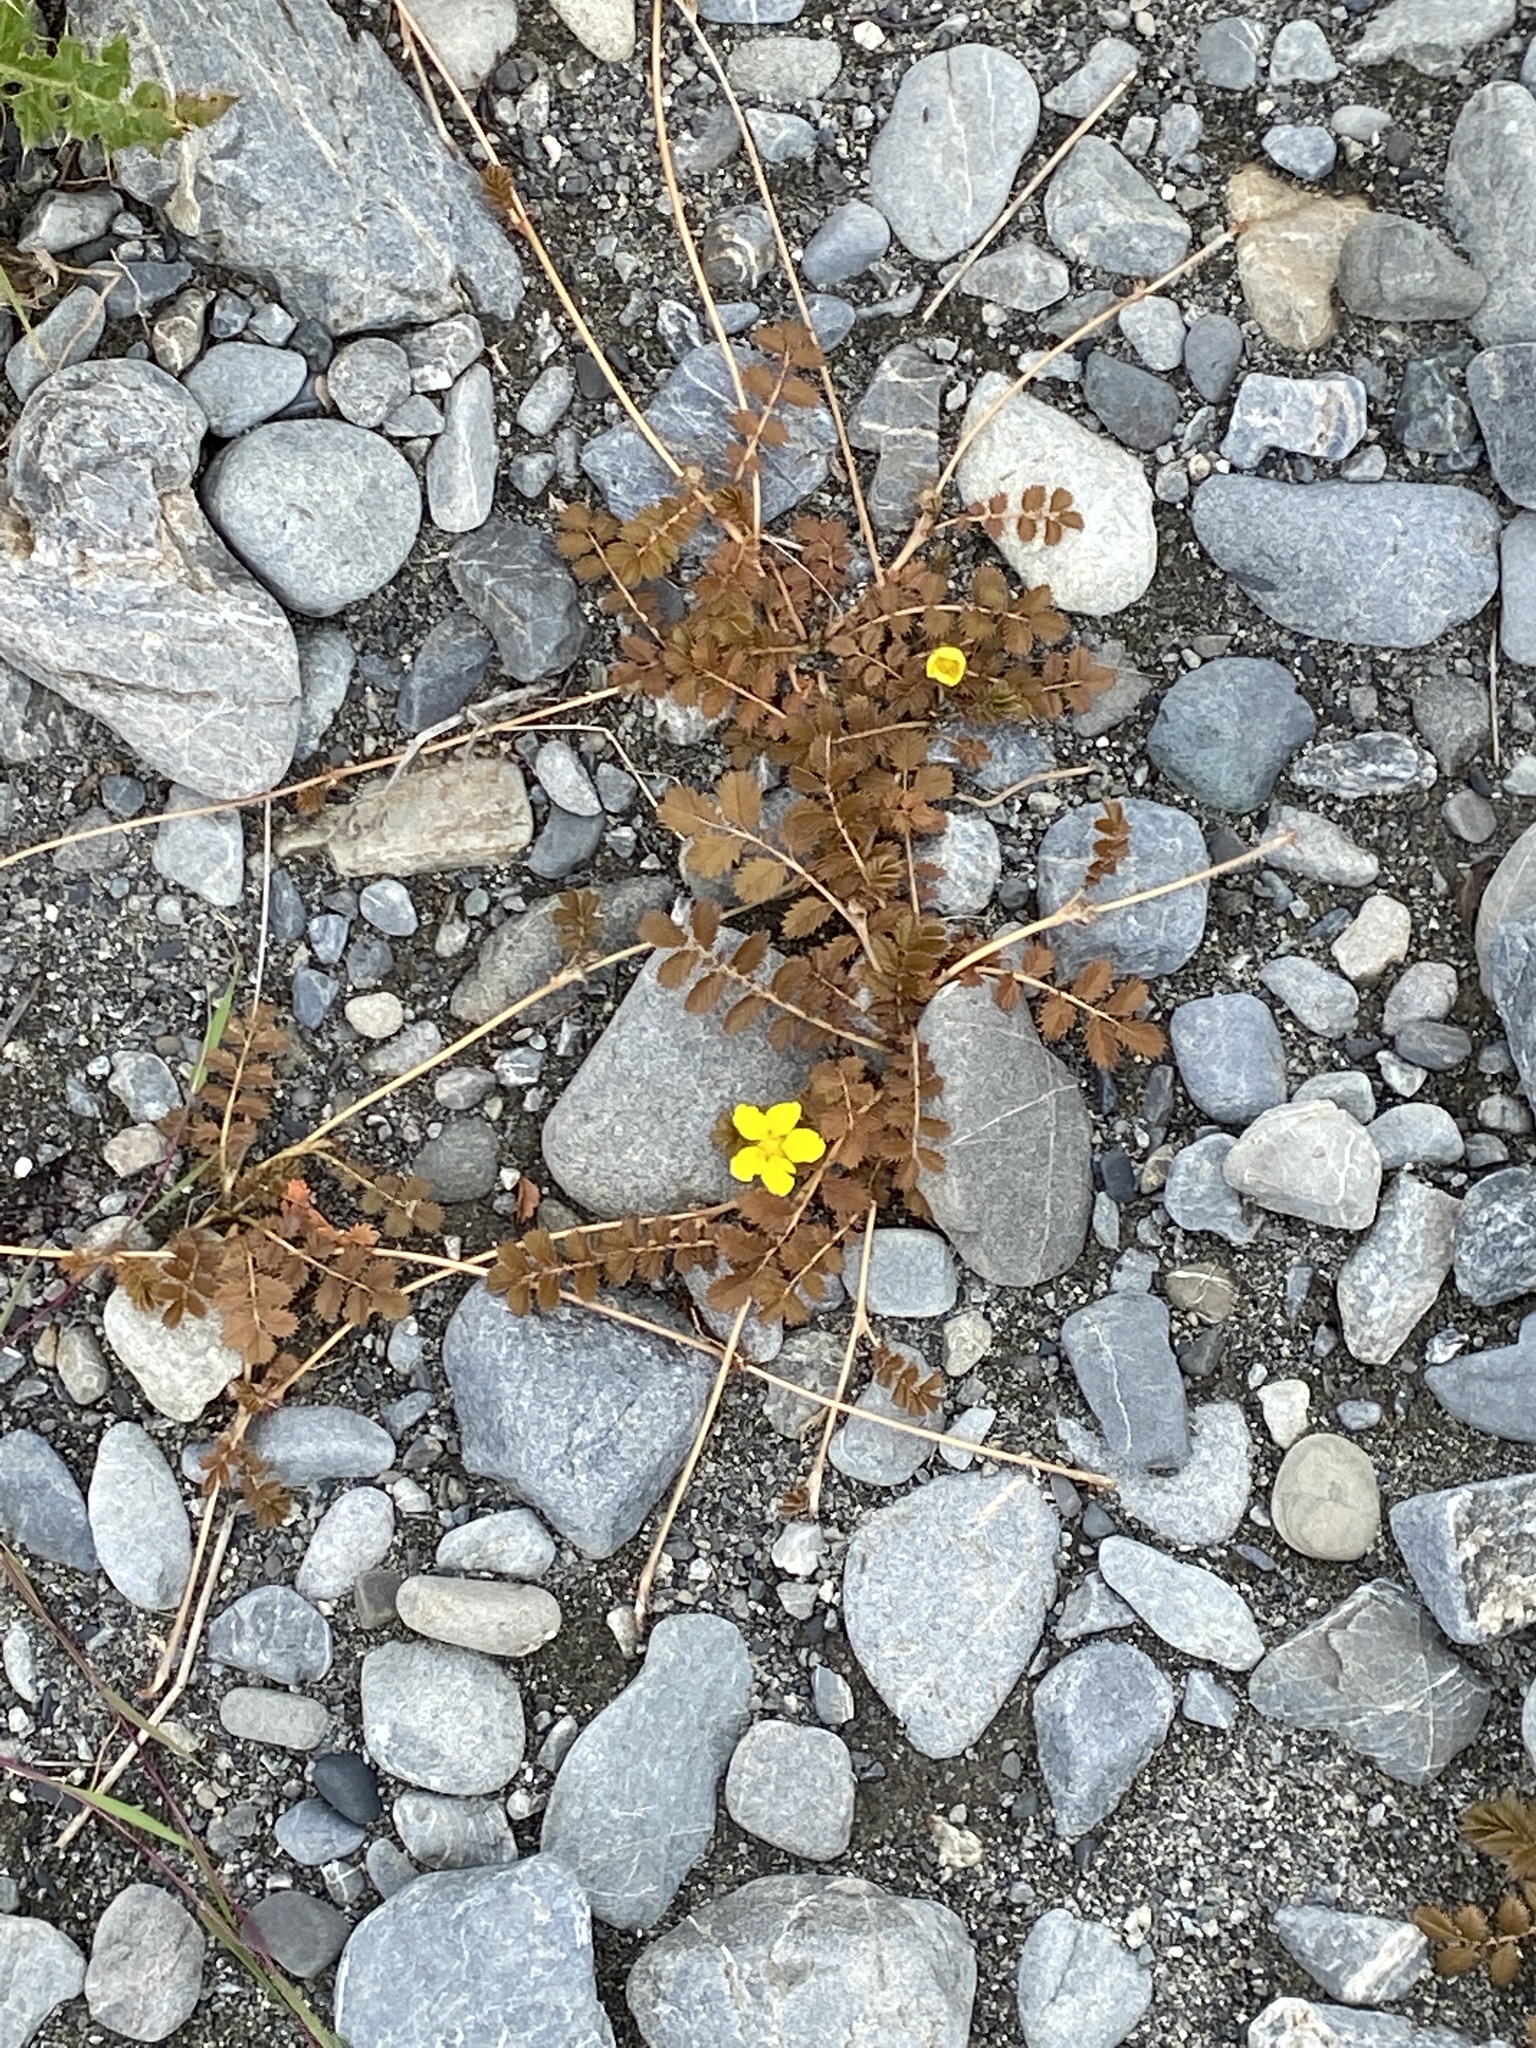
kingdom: Plantae
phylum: Tracheophyta
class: Magnoliopsida
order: Rosales
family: Rosaceae
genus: Argentina
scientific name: Argentina anserinoides
